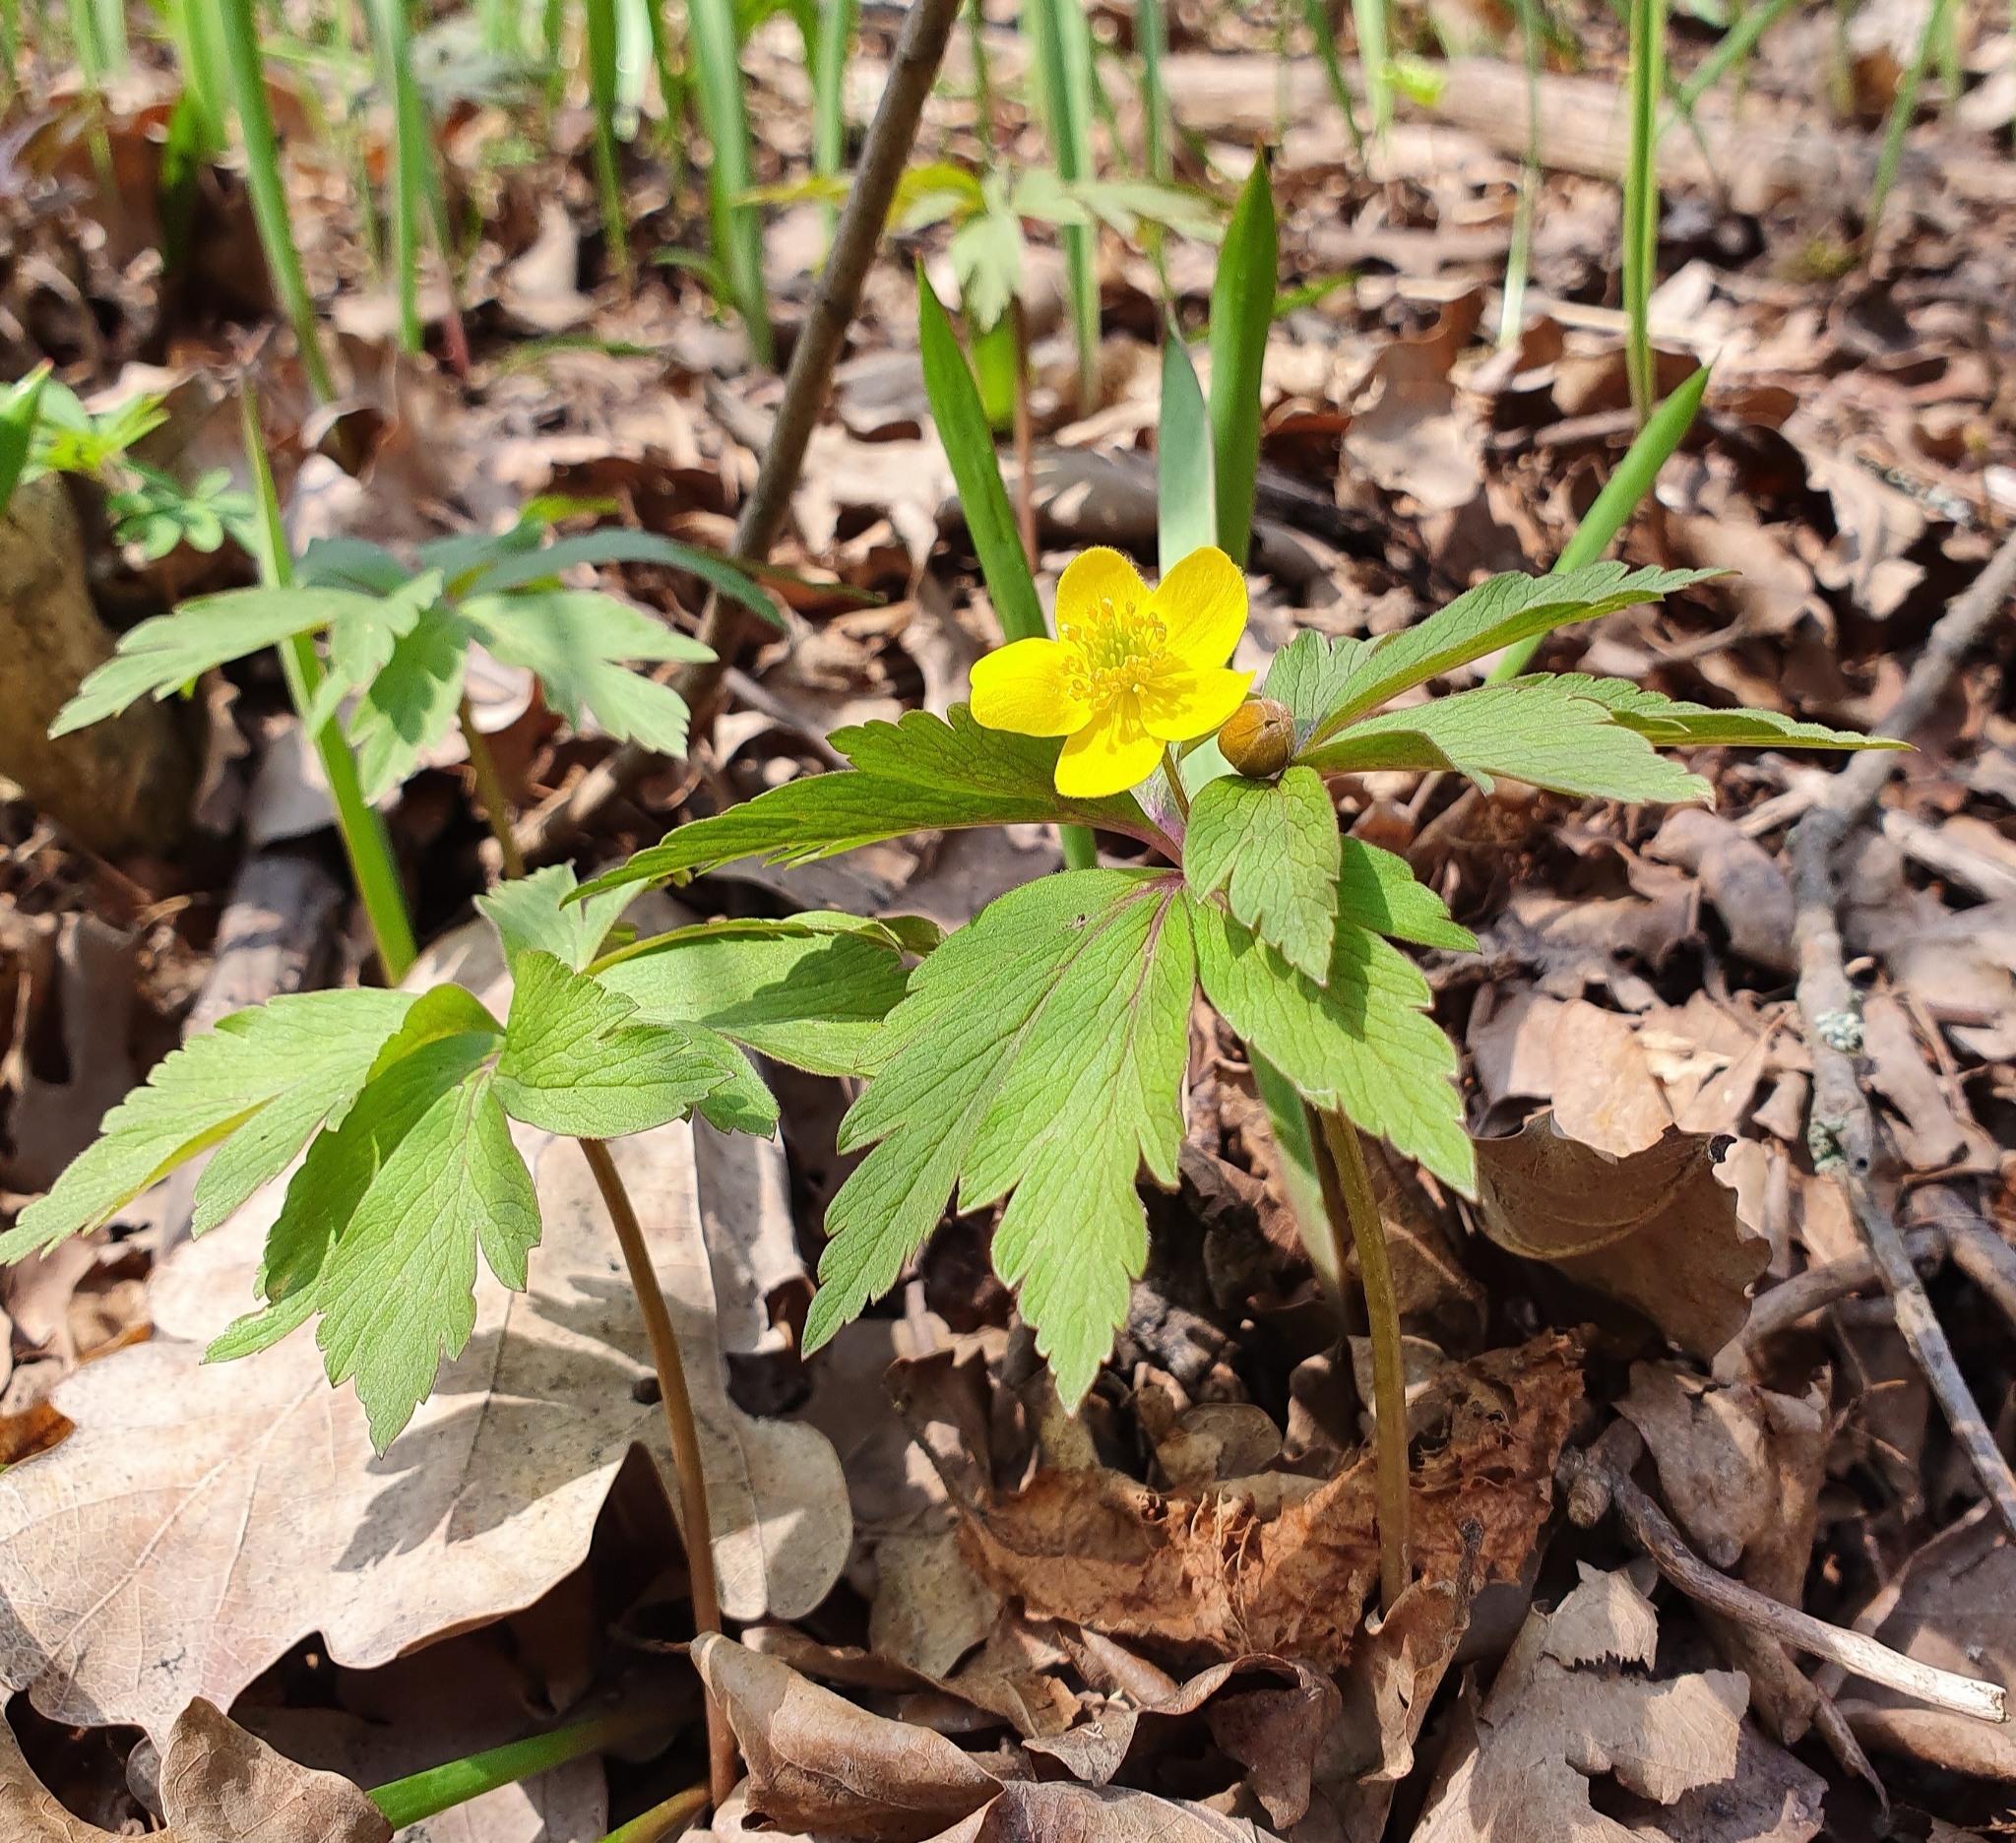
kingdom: Plantae
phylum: Tracheophyta
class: Magnoliopsida
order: Ranunculales
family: Ranunculaceae
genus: Anemone
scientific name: Anemone ranunculoides
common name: Yellow anemone
